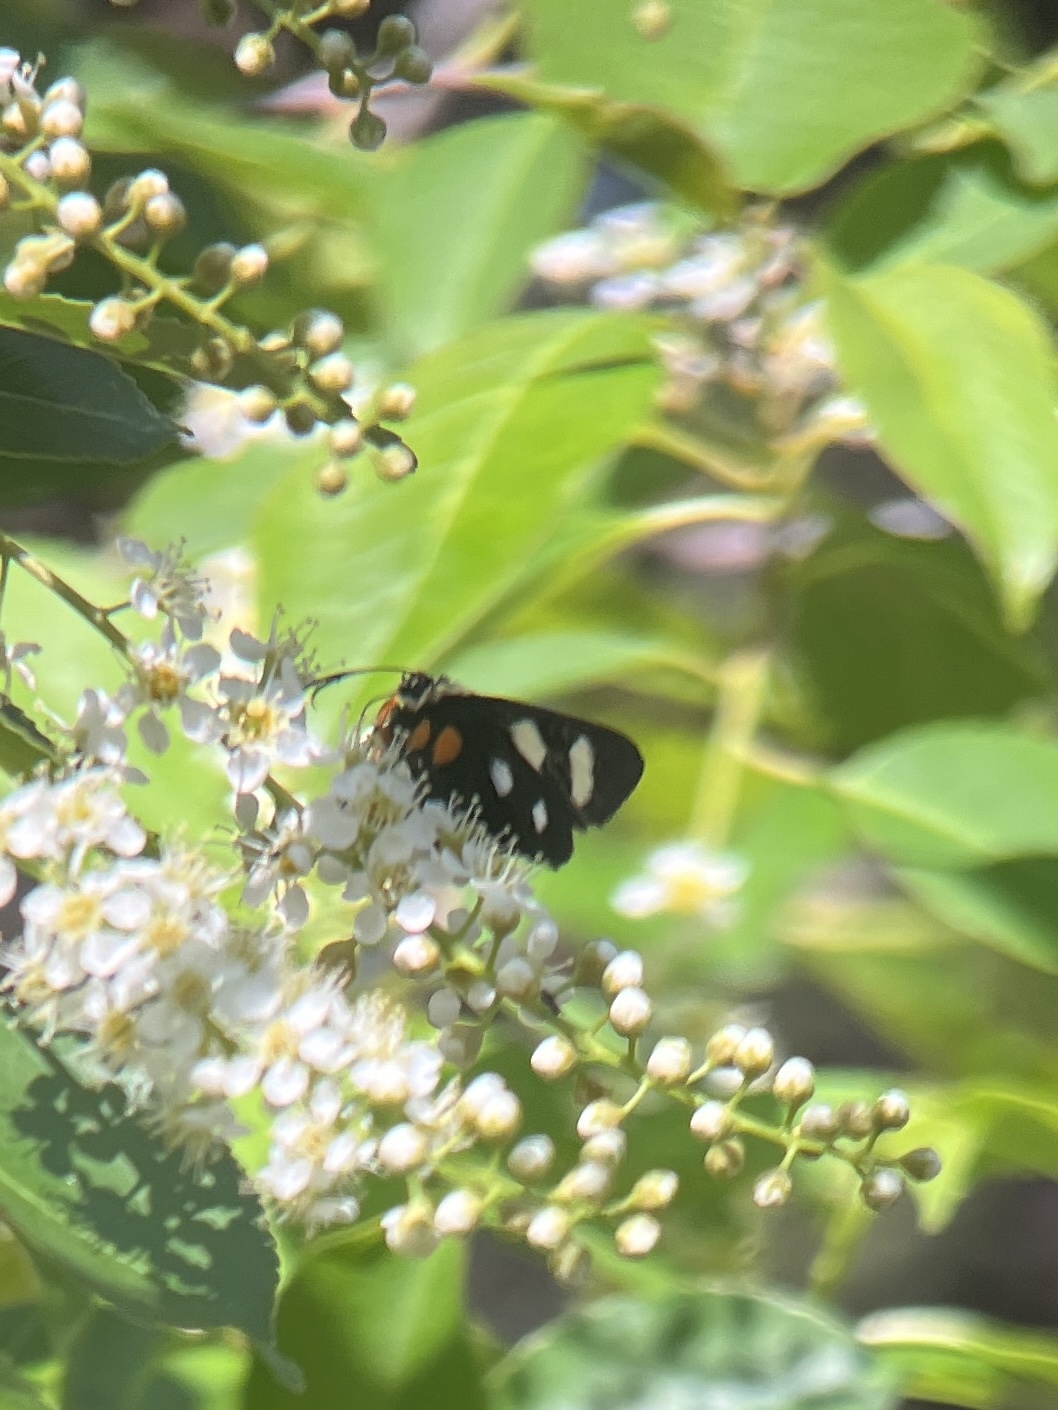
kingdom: Animalia
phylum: Arthropoda
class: Insecta
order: Lepidoptera
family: Noctuidae
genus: Alypia
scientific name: Alypia octomaculata
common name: Eight-spotted forester
